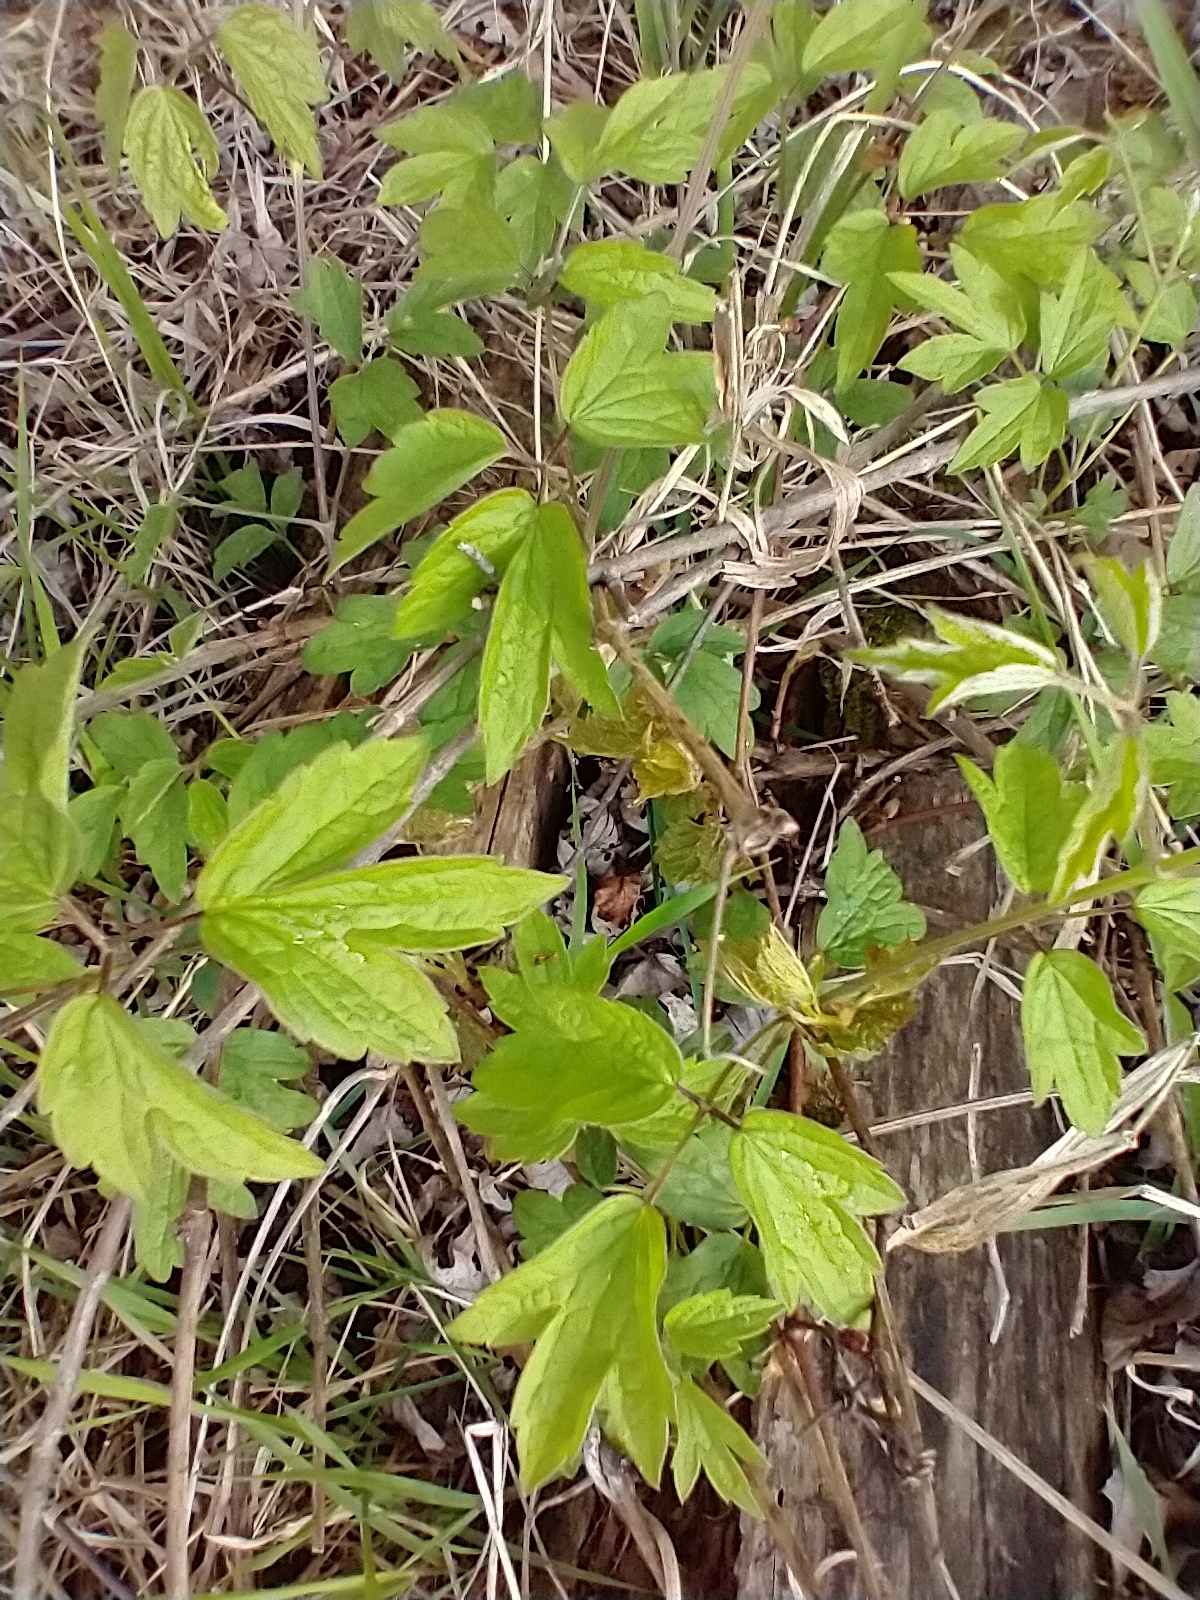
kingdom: Plantae
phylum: Tracheophyta
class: Magnoliopsida
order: Ranunculales
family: Ranunculaceae
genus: Clematis
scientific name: Clematis virginiana
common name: Virgin's-bower
